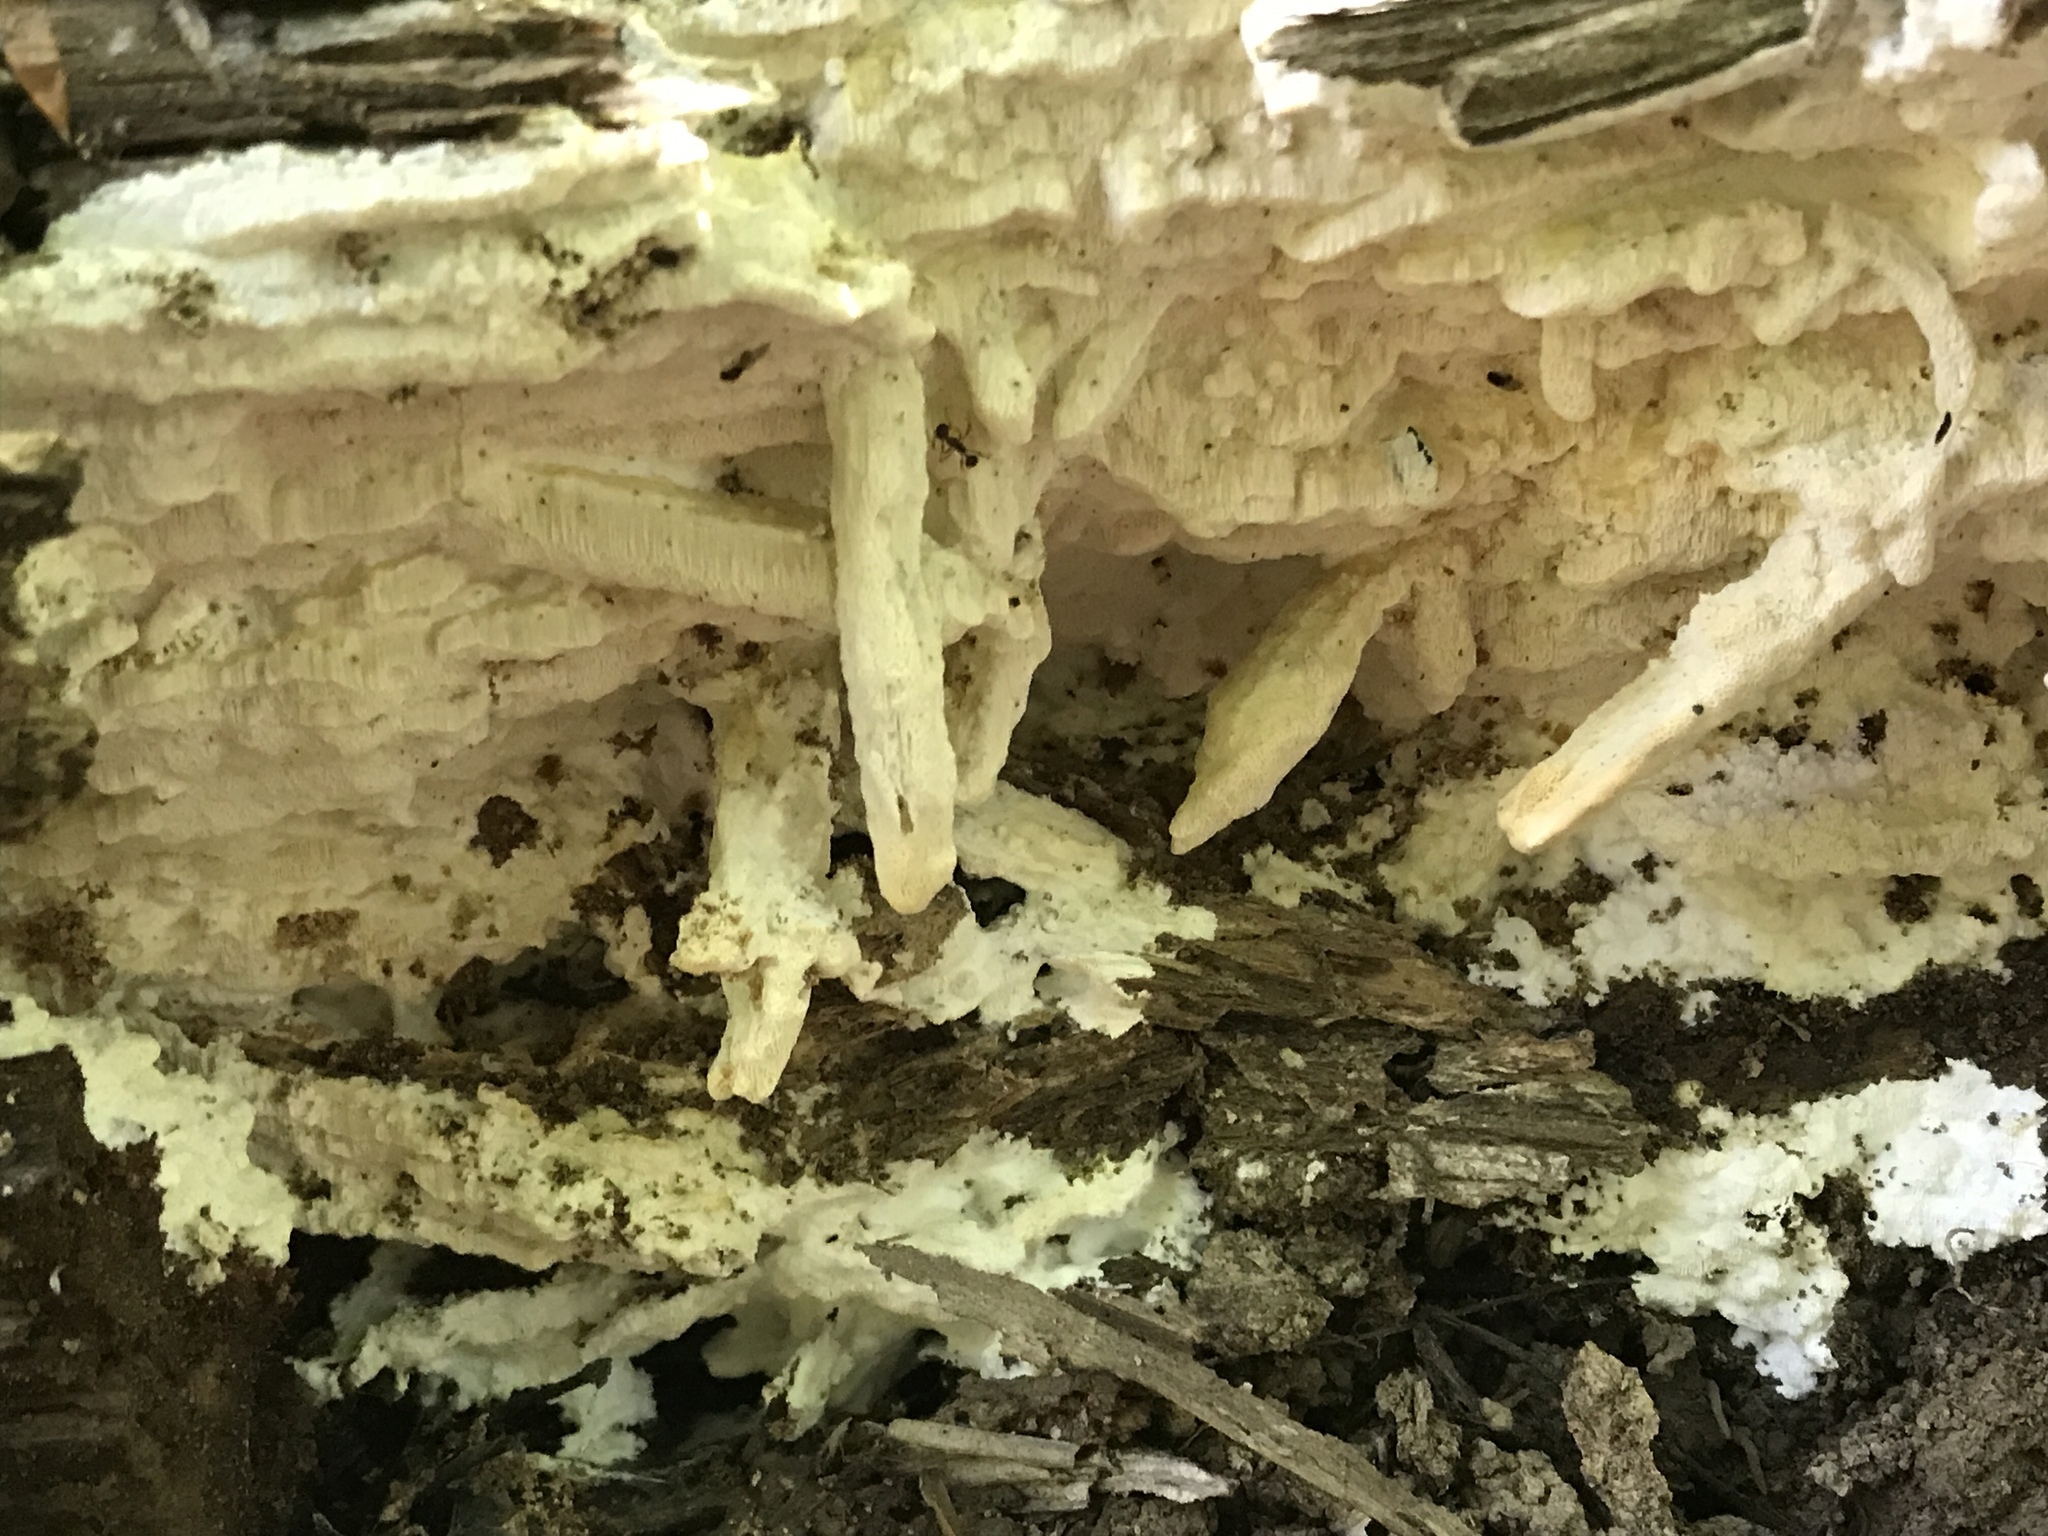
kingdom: Fungi
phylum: Basidiomycota
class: Agaricomycetes
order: Polyporales
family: Polyporaceae
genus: Perenniporia
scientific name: Perenniporia bostonensis
